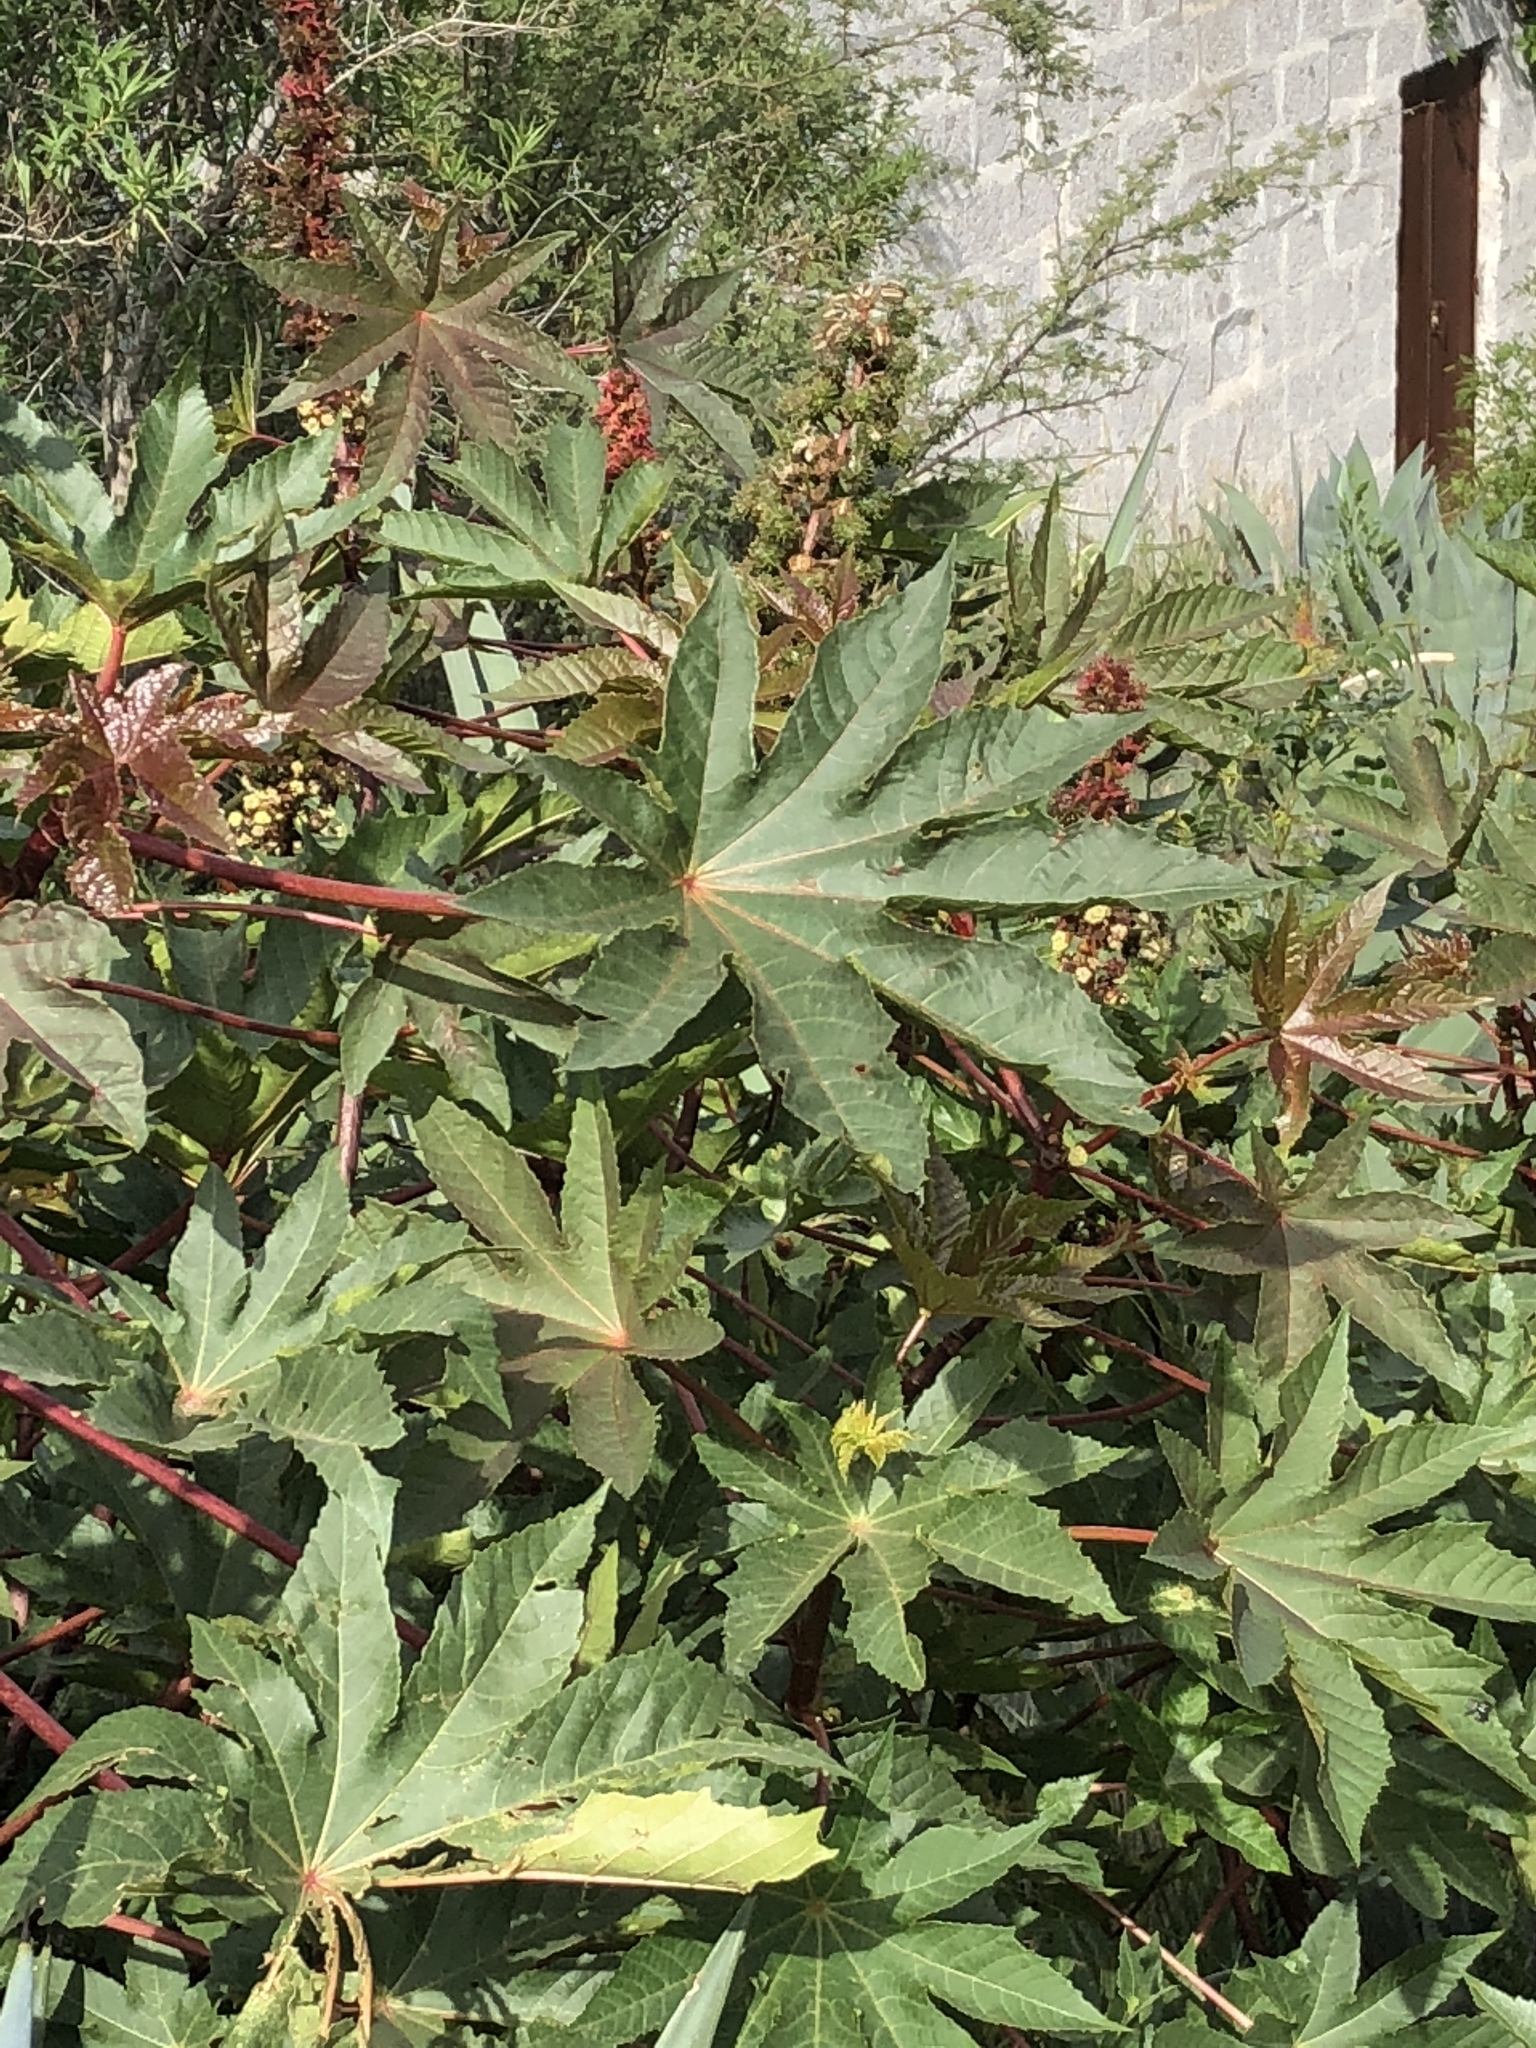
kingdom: Plantae
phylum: Tracheophyta
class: Magnoliopsida
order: Malpighiales
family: Euphorbiaceae
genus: Ricinus
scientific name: Ricinus communis
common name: Castor-oil-plant
